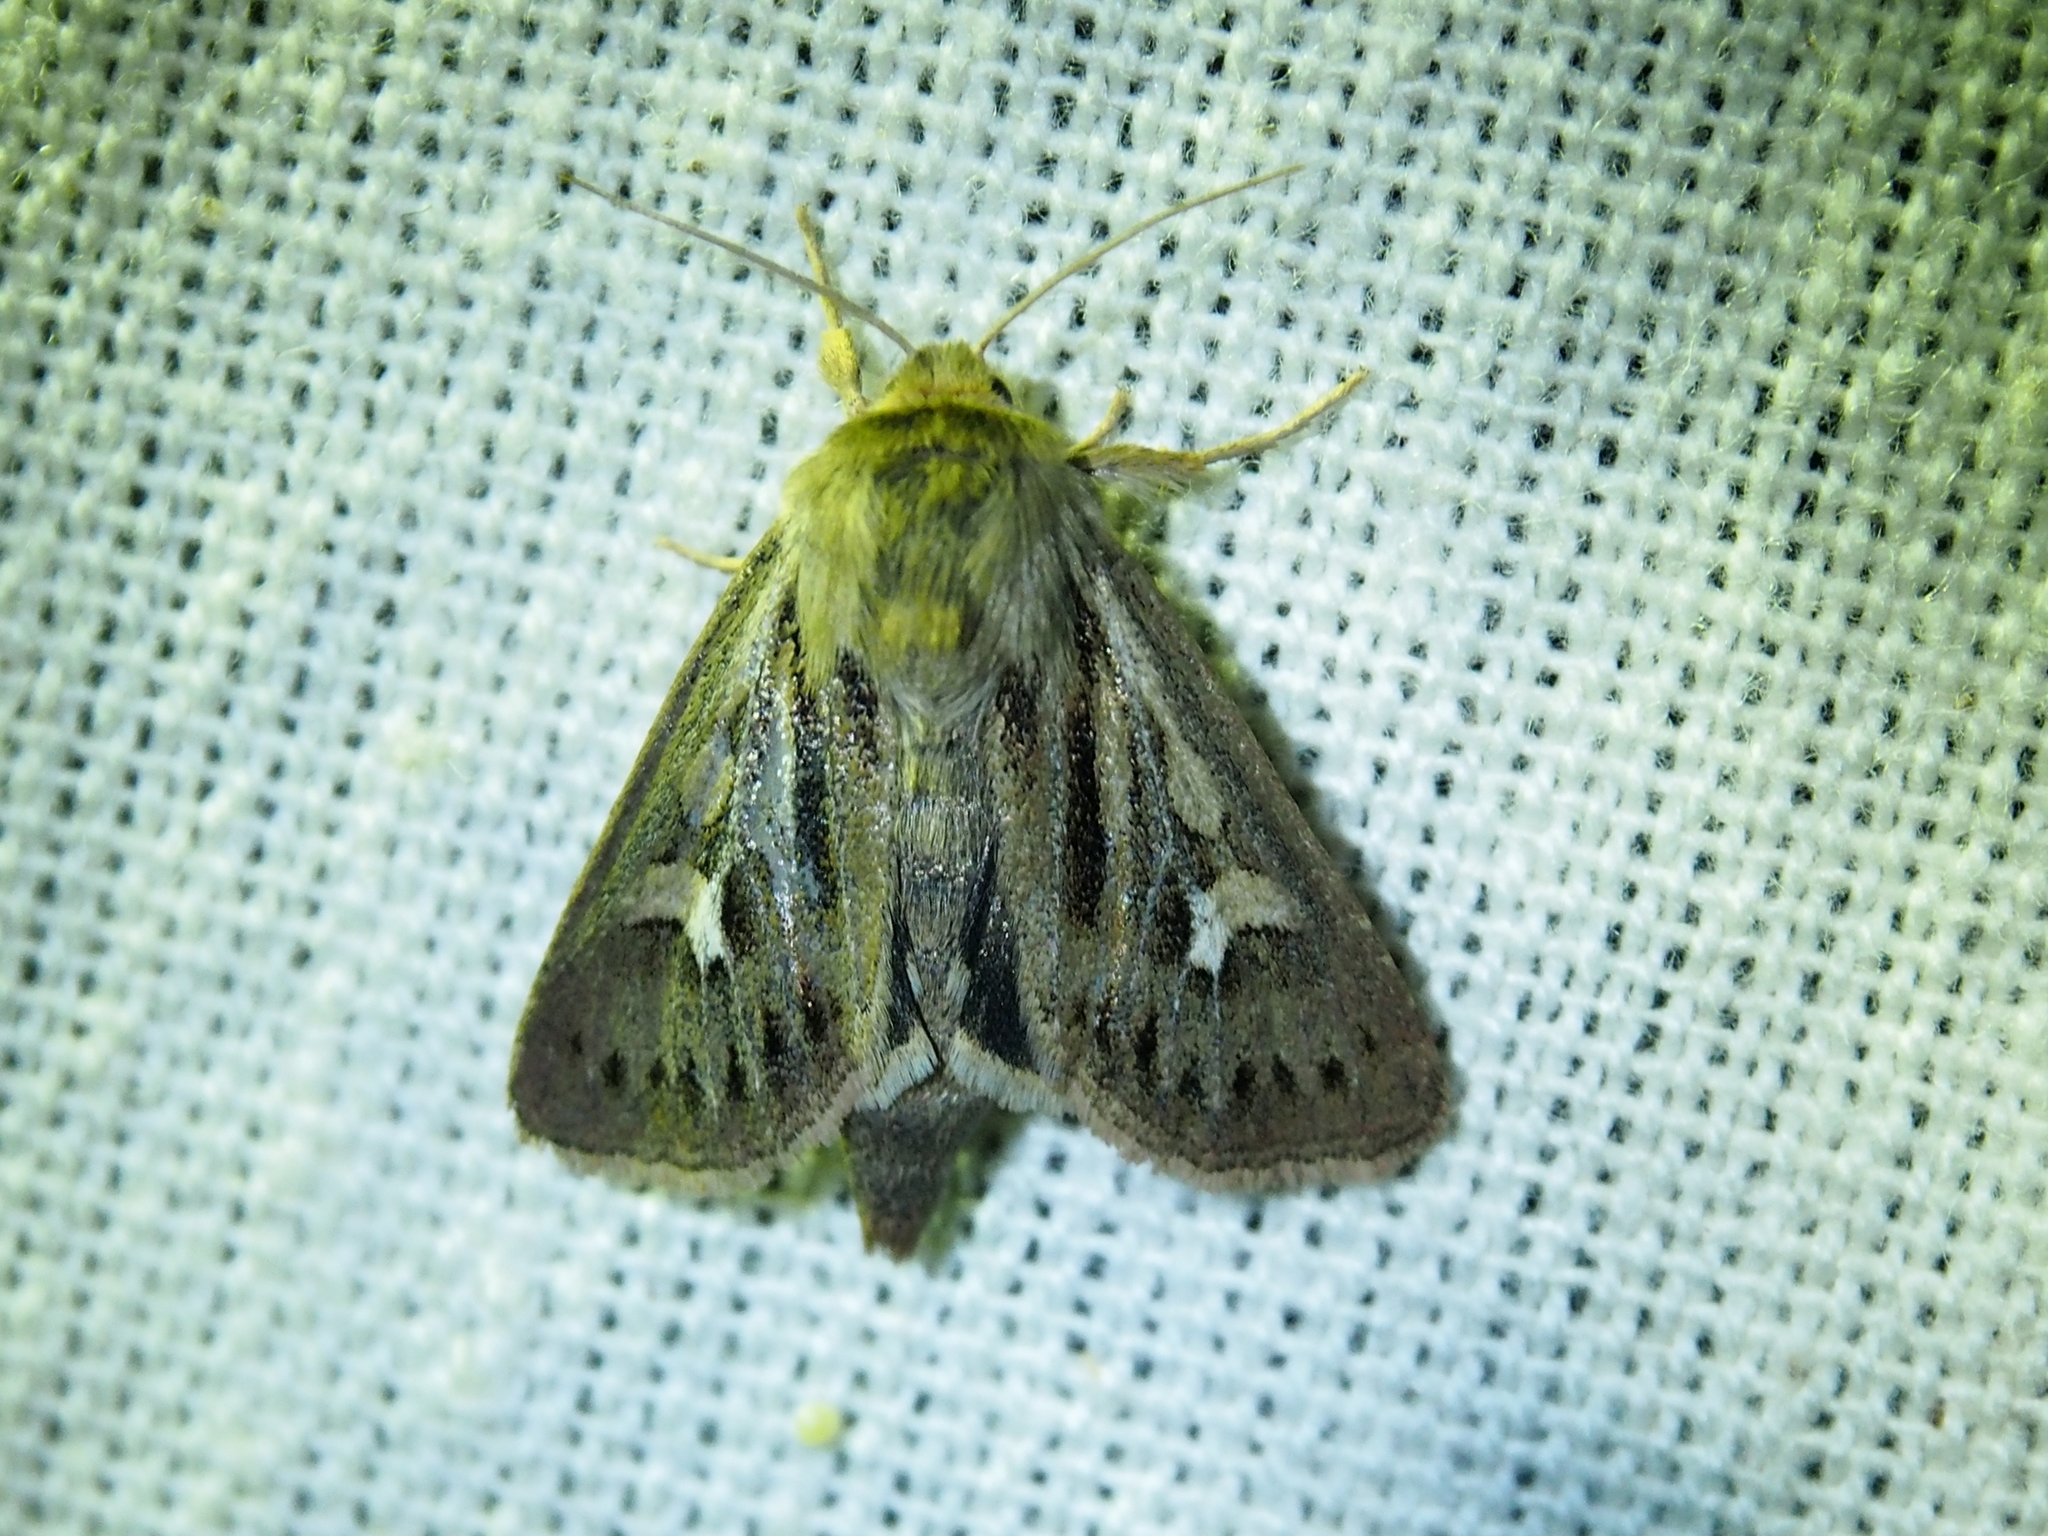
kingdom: Animalia
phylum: Arthropoda
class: Insecta
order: Lepidoptera
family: Noctuidae
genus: Cerapteryx
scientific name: Cerapteryx graminis
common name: Antler moth
